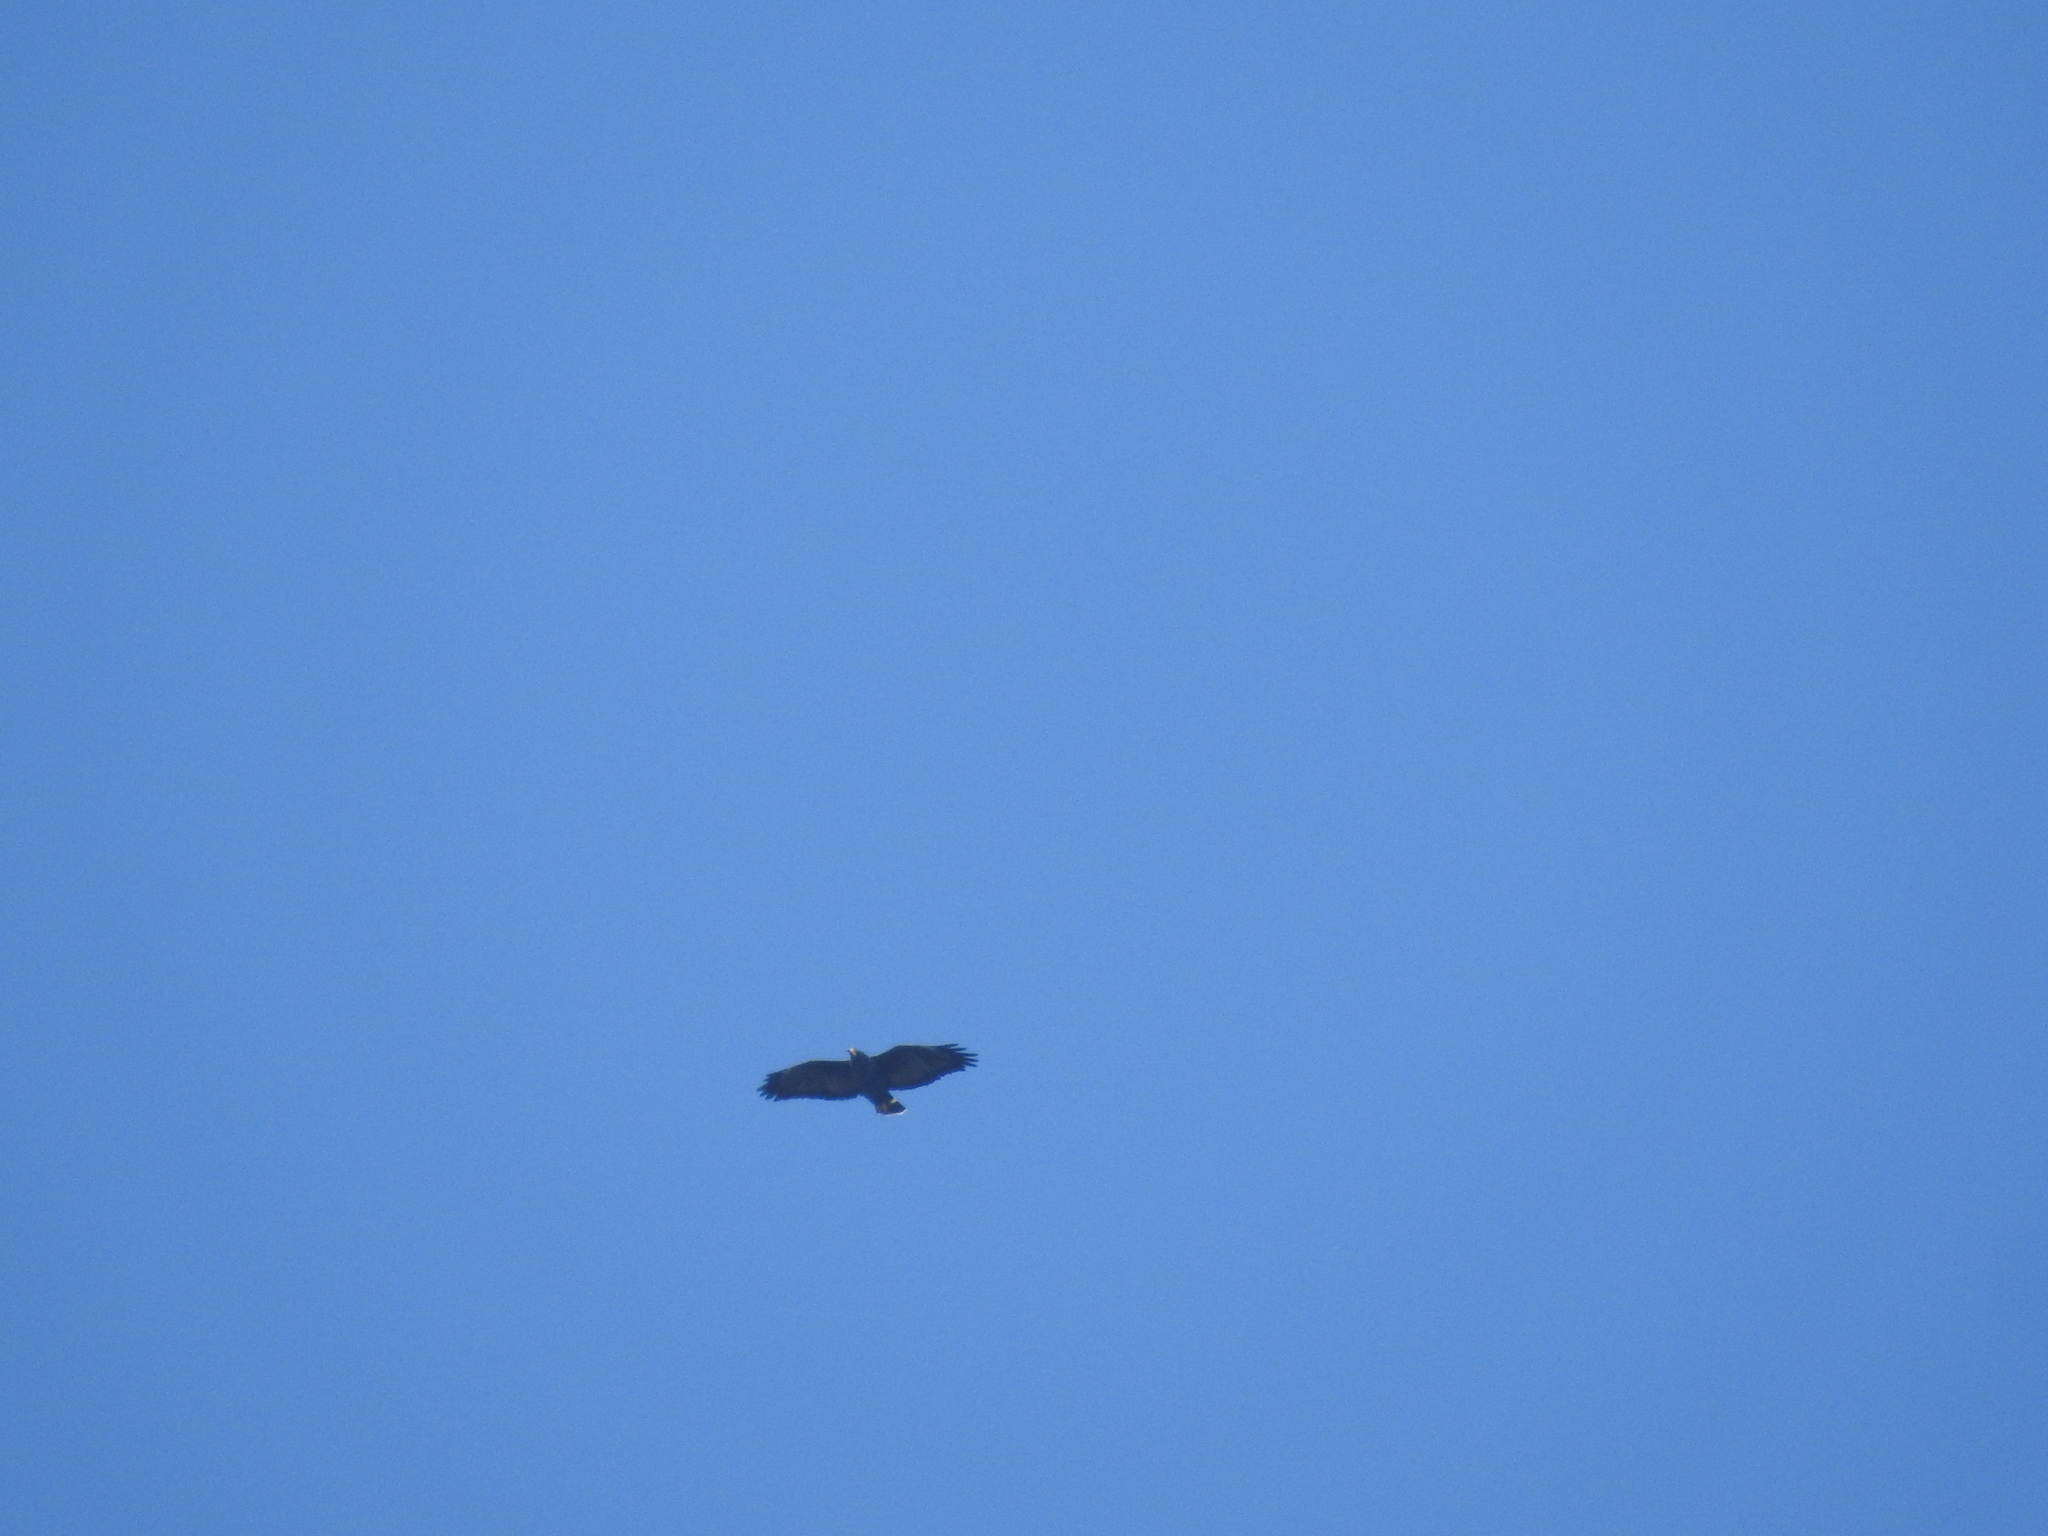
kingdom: Animalia
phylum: Chordata
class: Aves
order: Accipitriformes
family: Accipitridae
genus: Buteogallus
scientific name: Buteogallus anthracinus
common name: Common black hawk
